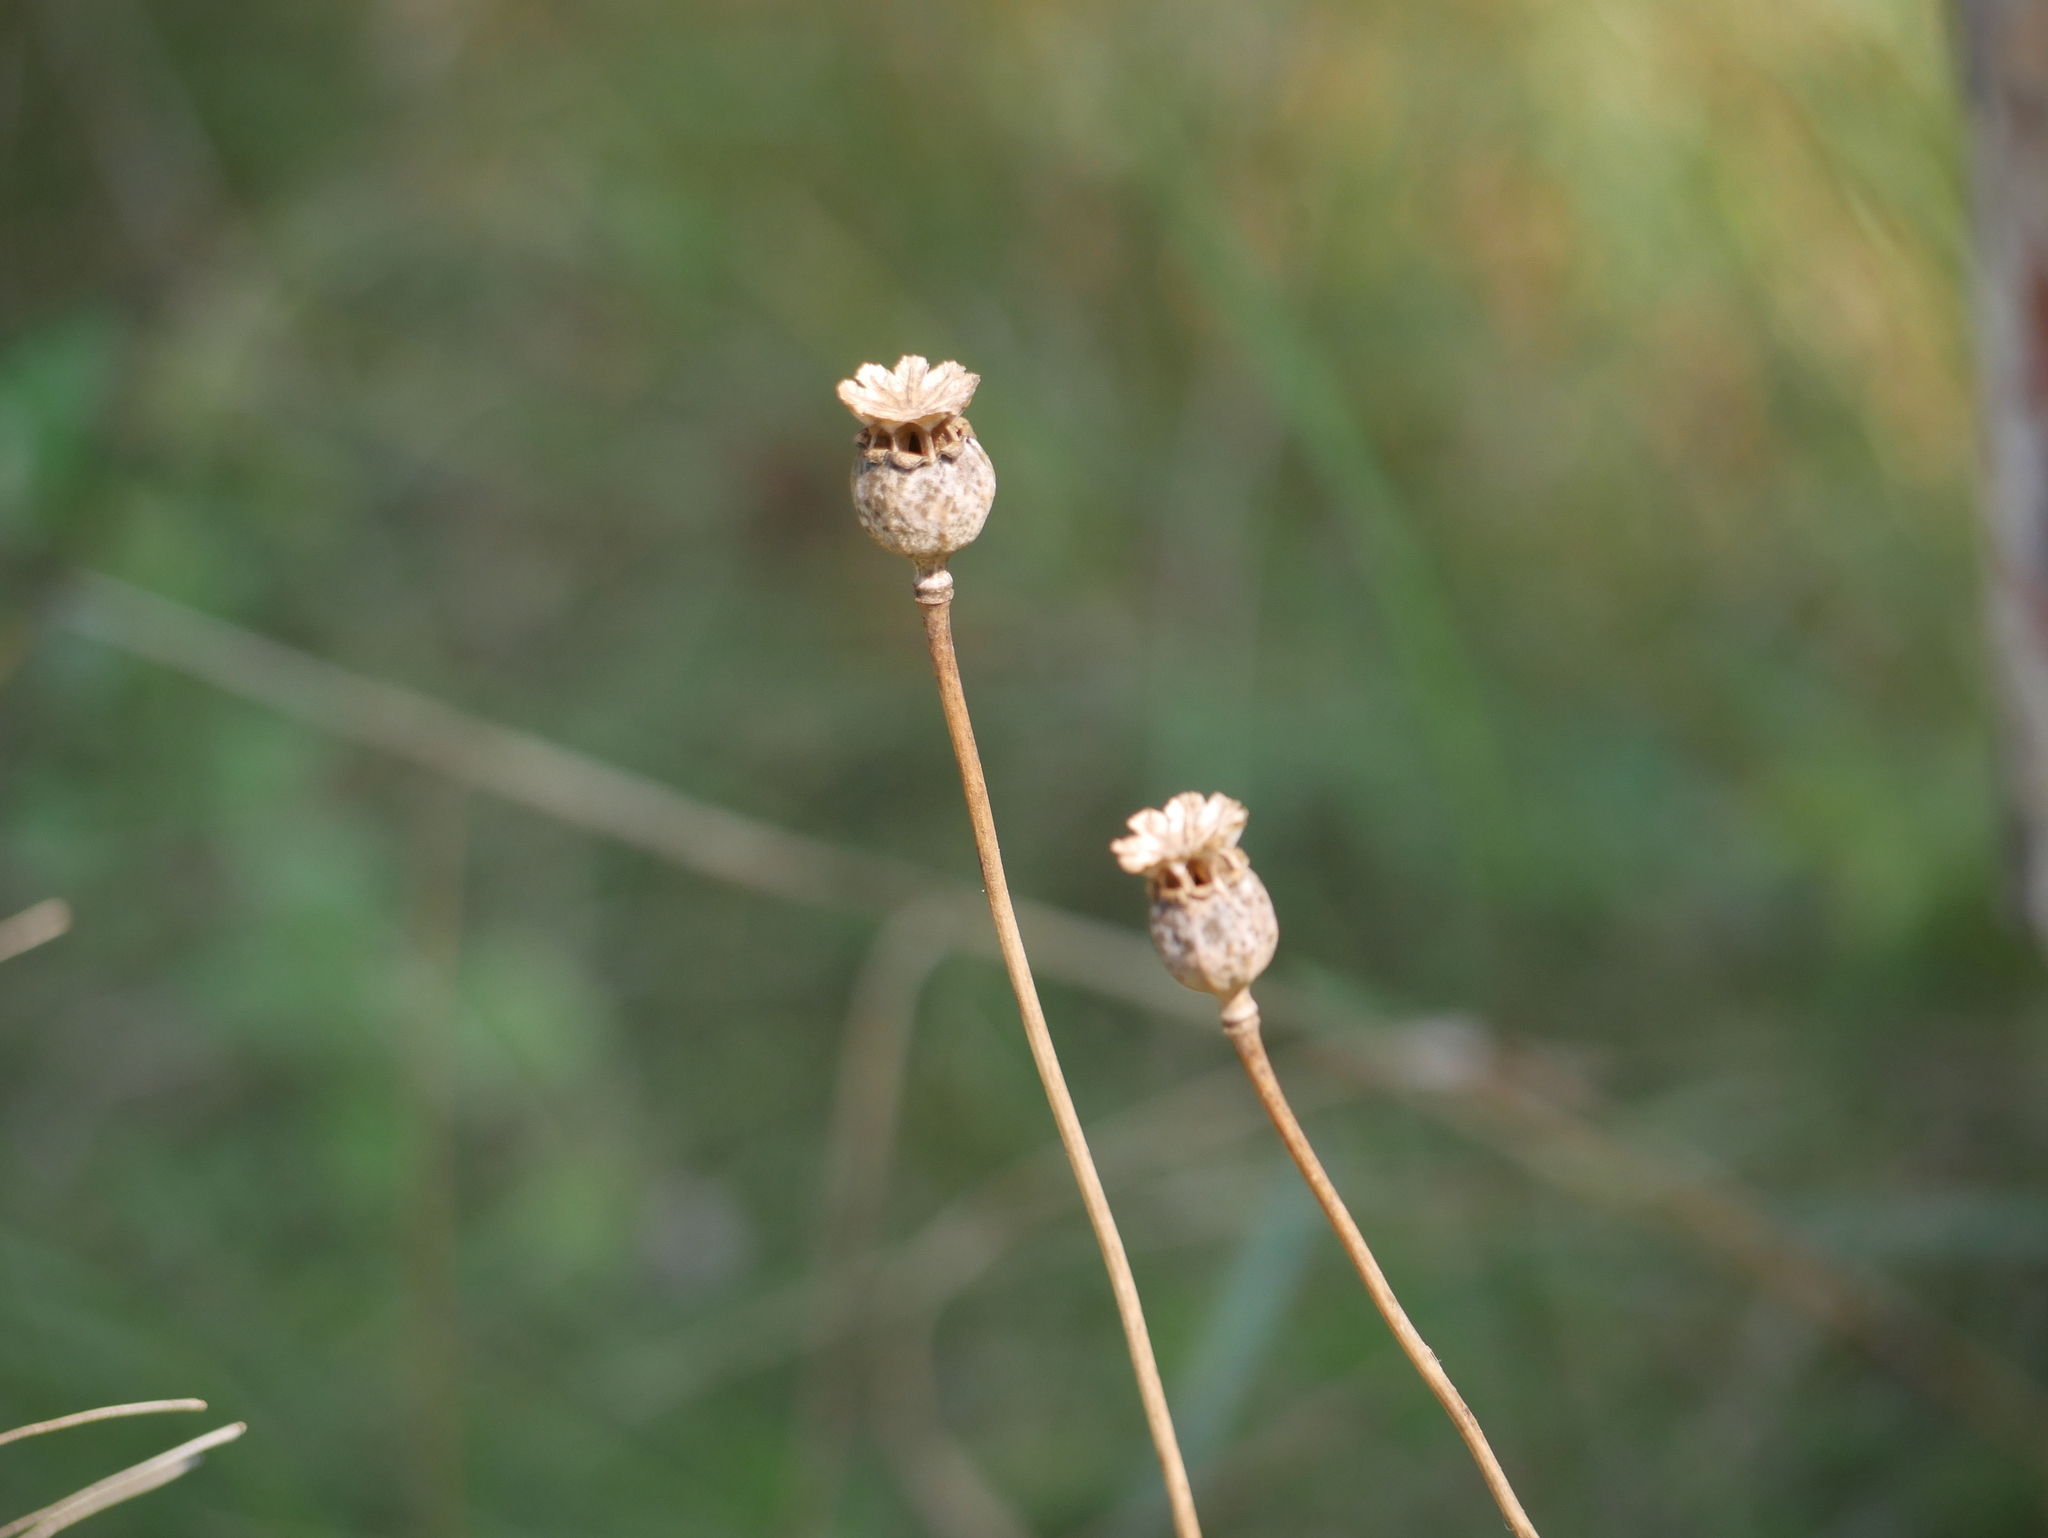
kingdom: Plantae
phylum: Tracheophyta
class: Magnoliopsida
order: Ranunculales
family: Papaveraceae
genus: Papaver
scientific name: Papaver somniferum
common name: Opium poppy
